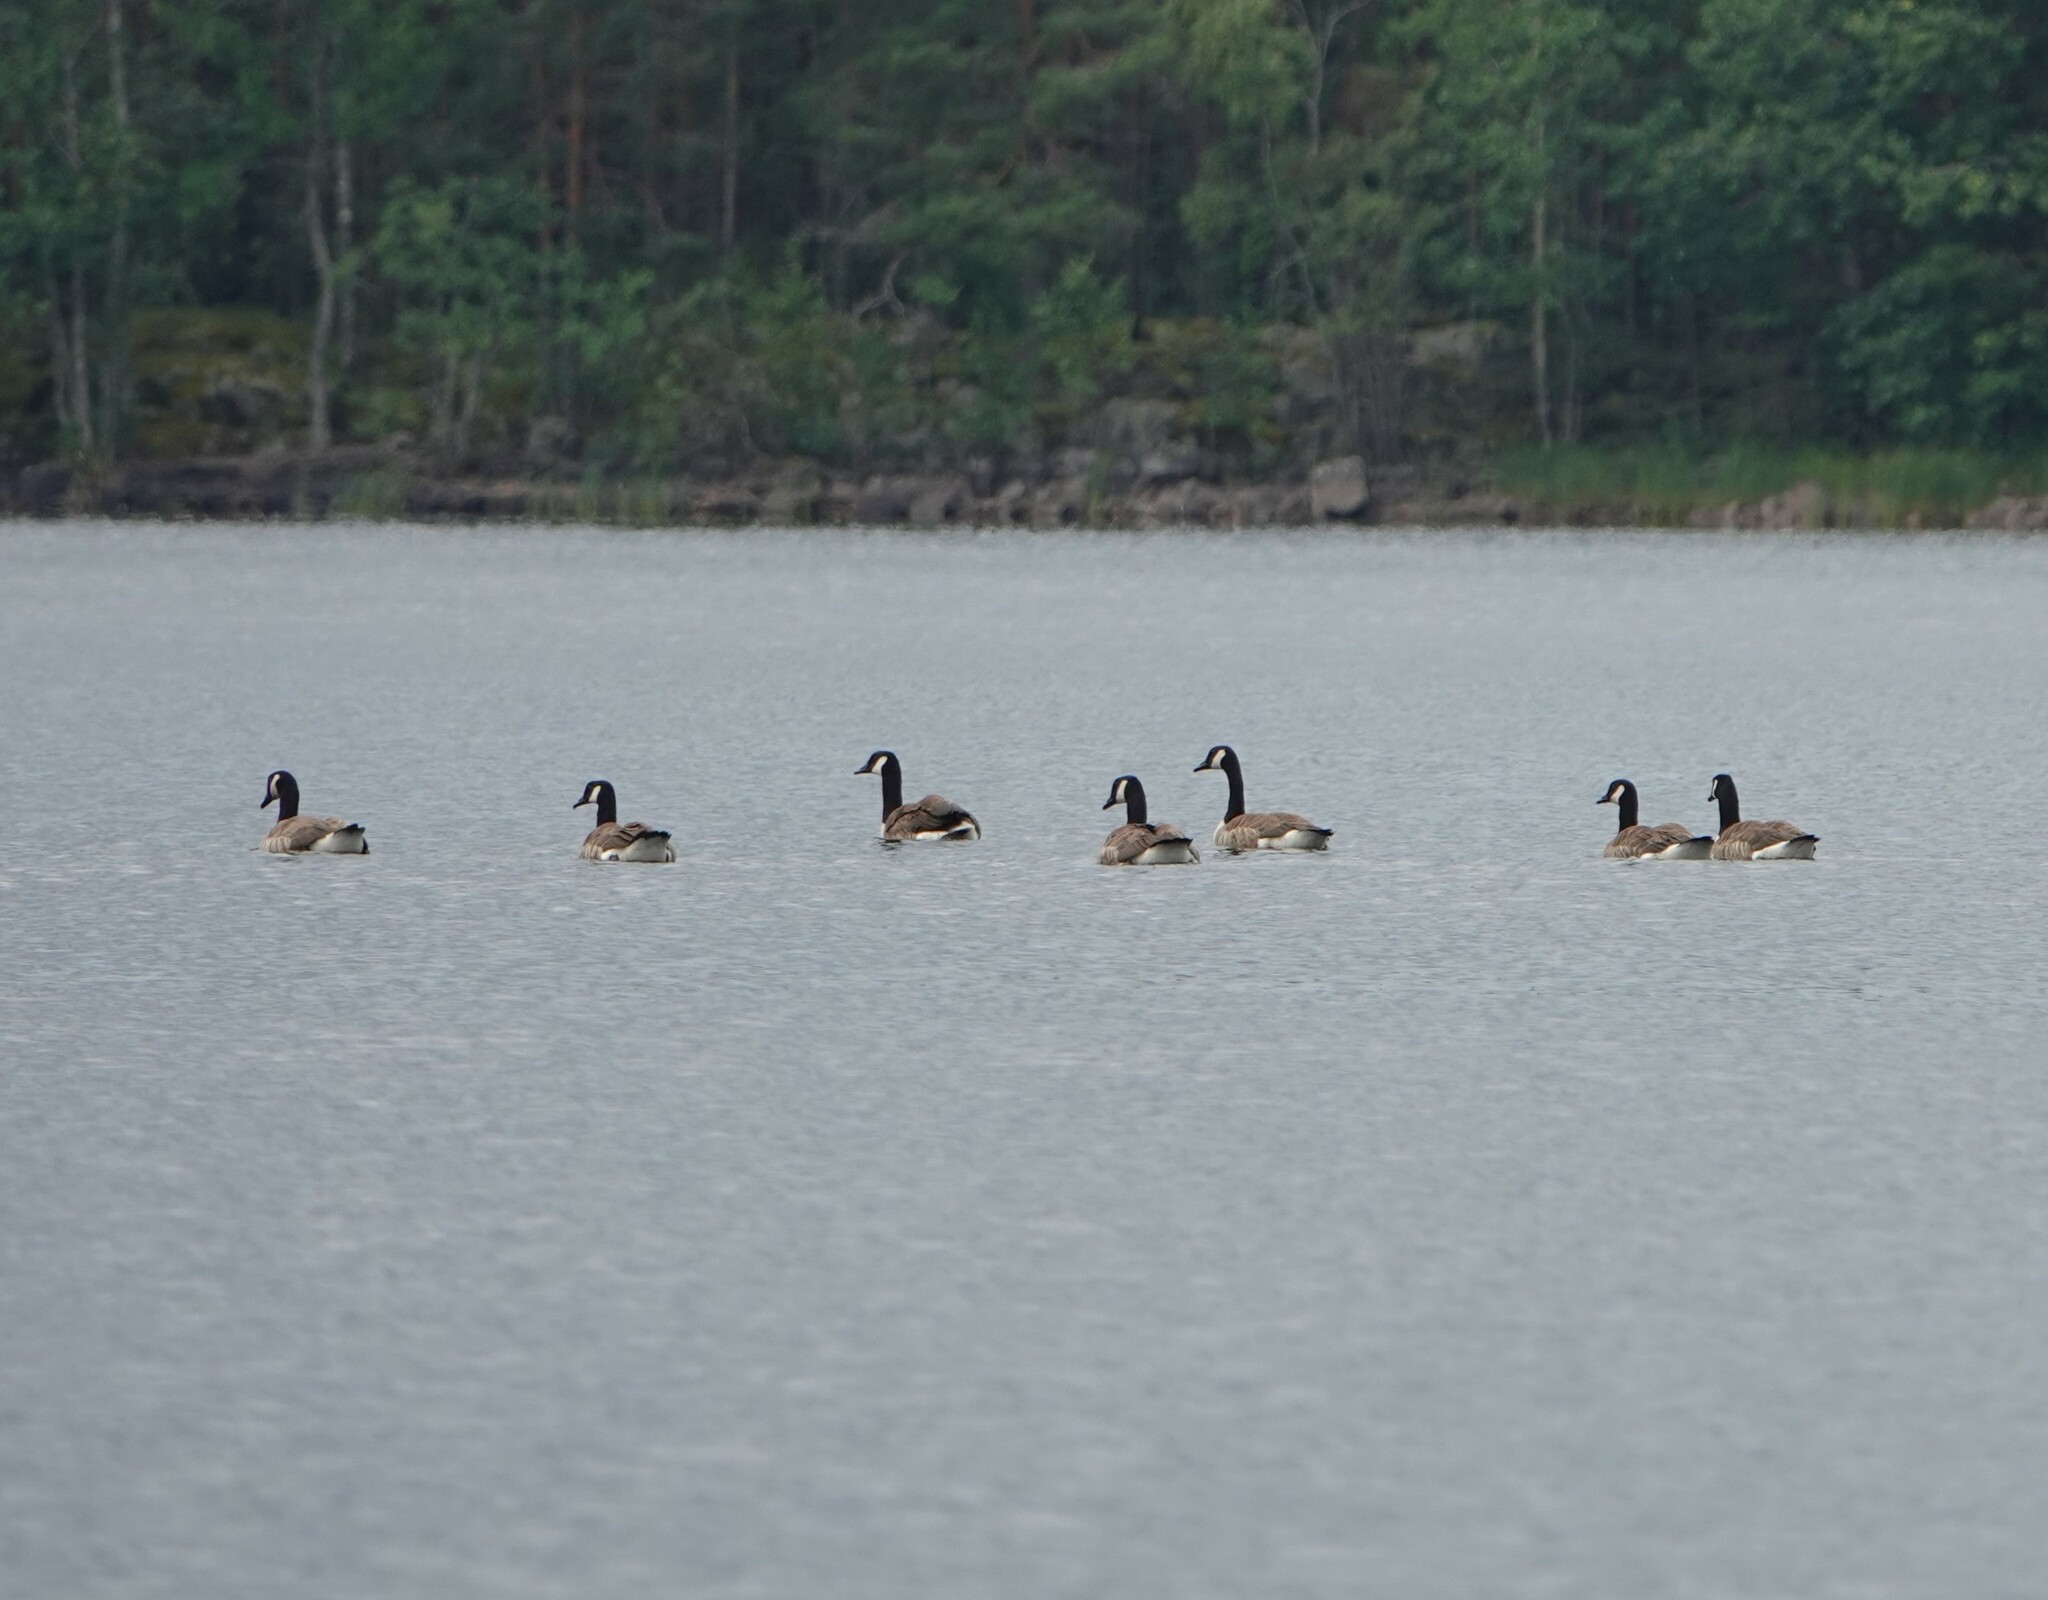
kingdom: Animalia
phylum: Chordata
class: Aves
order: Anseriformes
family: Anatidae
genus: Branta
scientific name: Branta canadensis
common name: Canada goose
